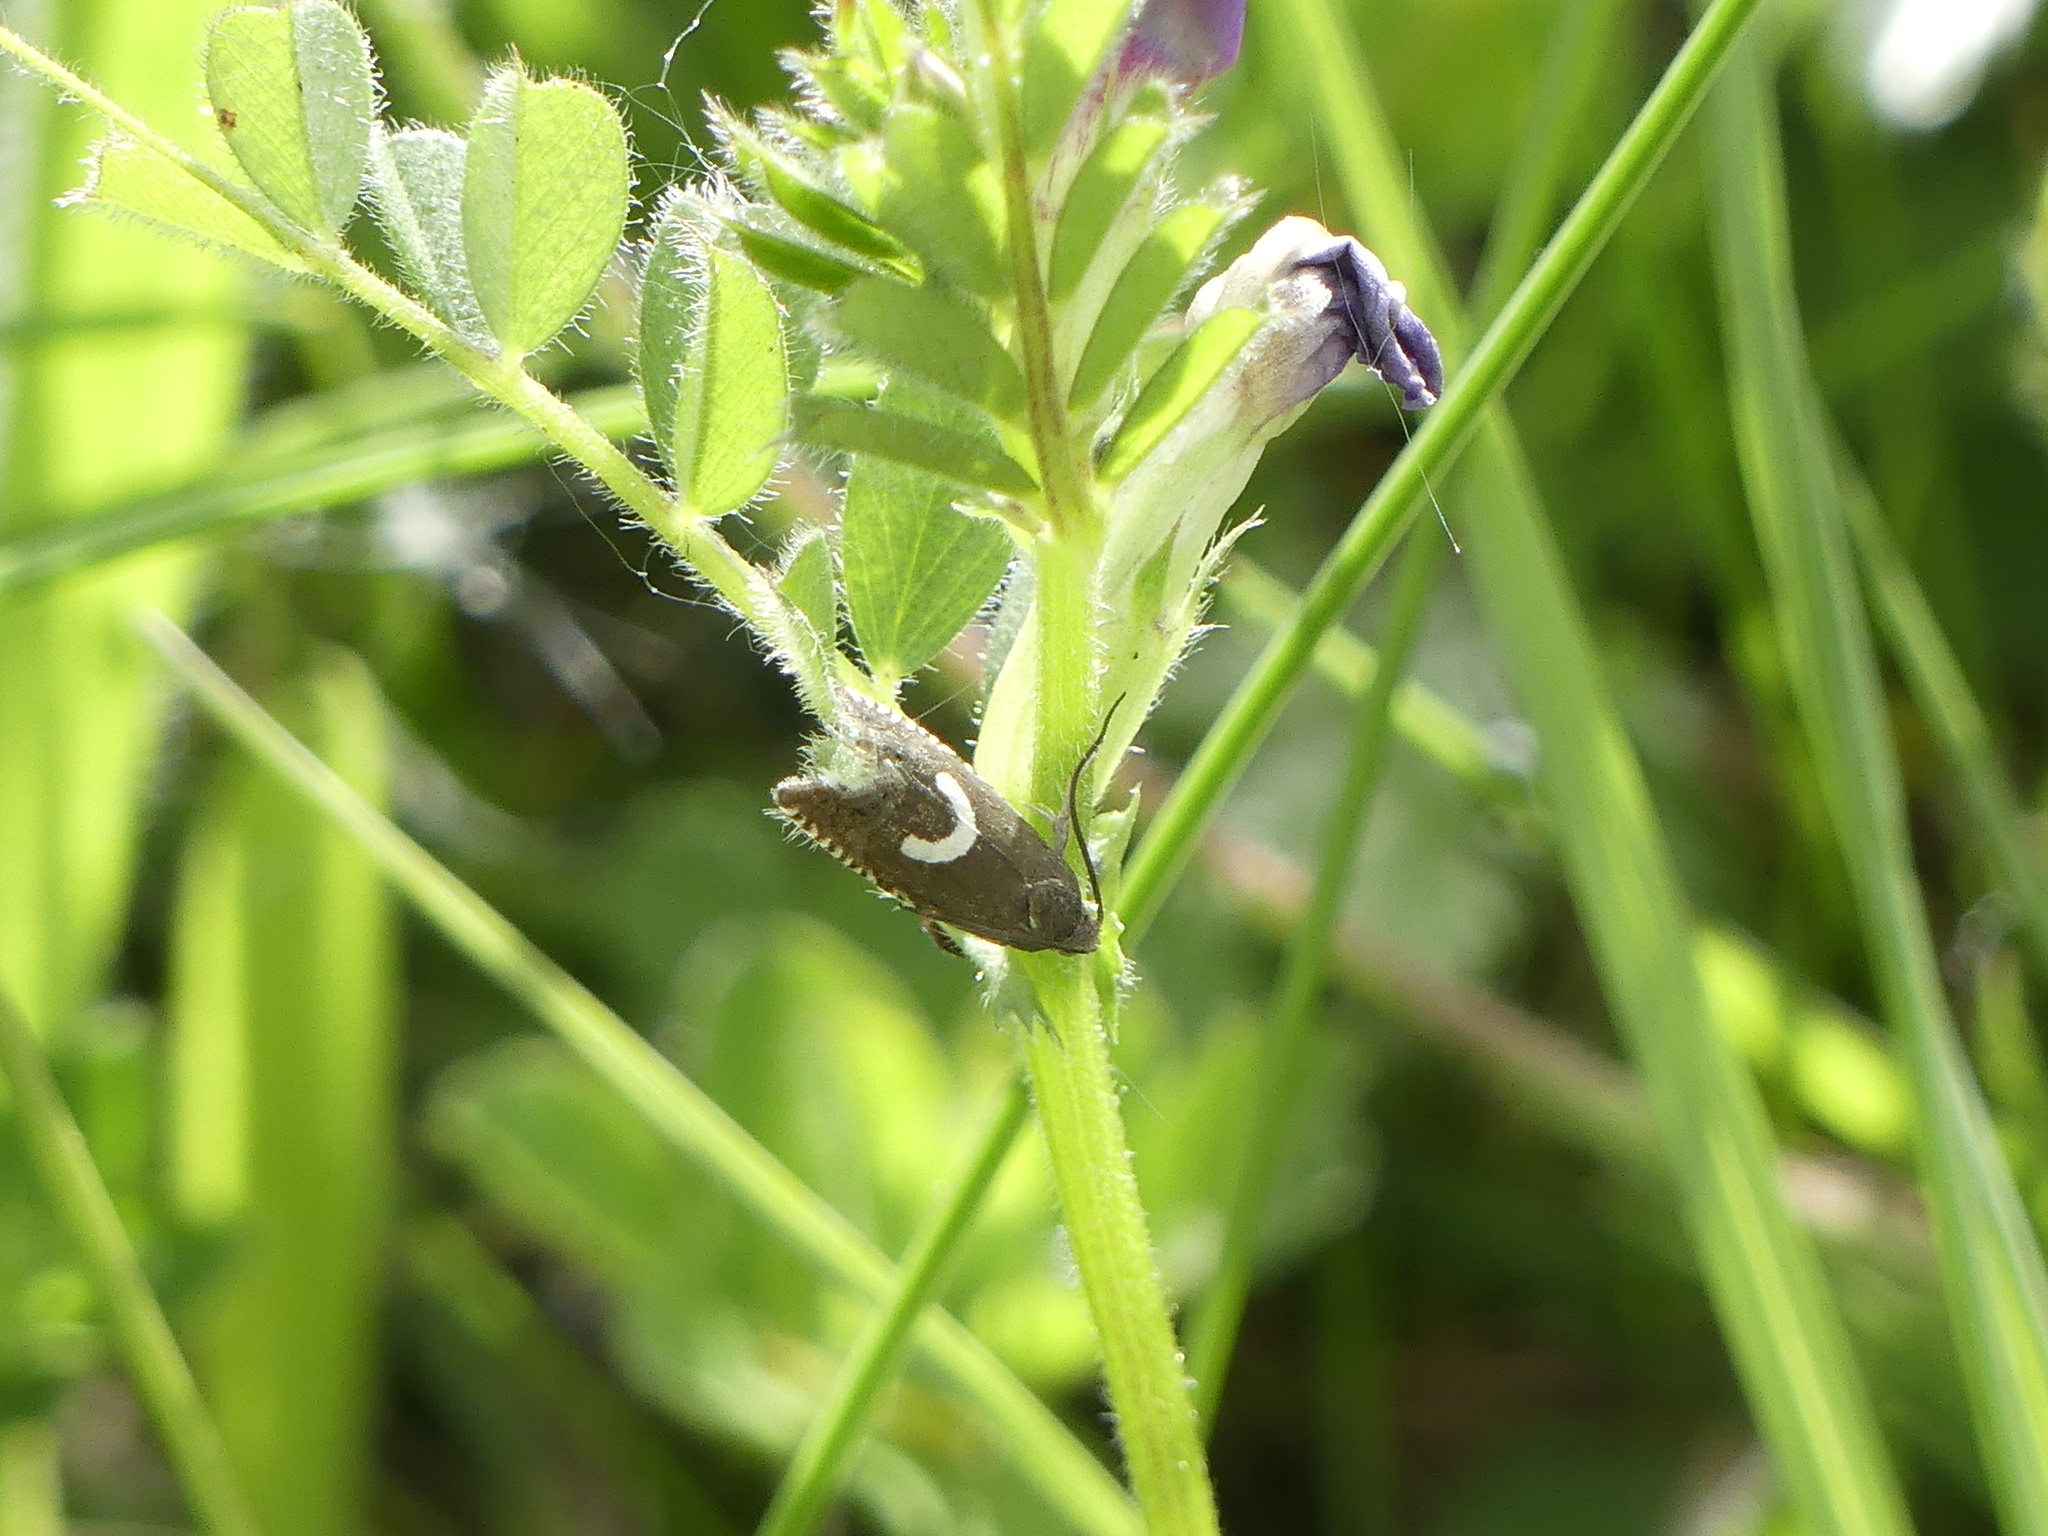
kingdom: Animalia
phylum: Arthropoda
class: Insecta
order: Lepidoptera
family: Tortricidae
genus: Grapholita
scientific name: Grapholita lunulana
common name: Northern crescent piercer
